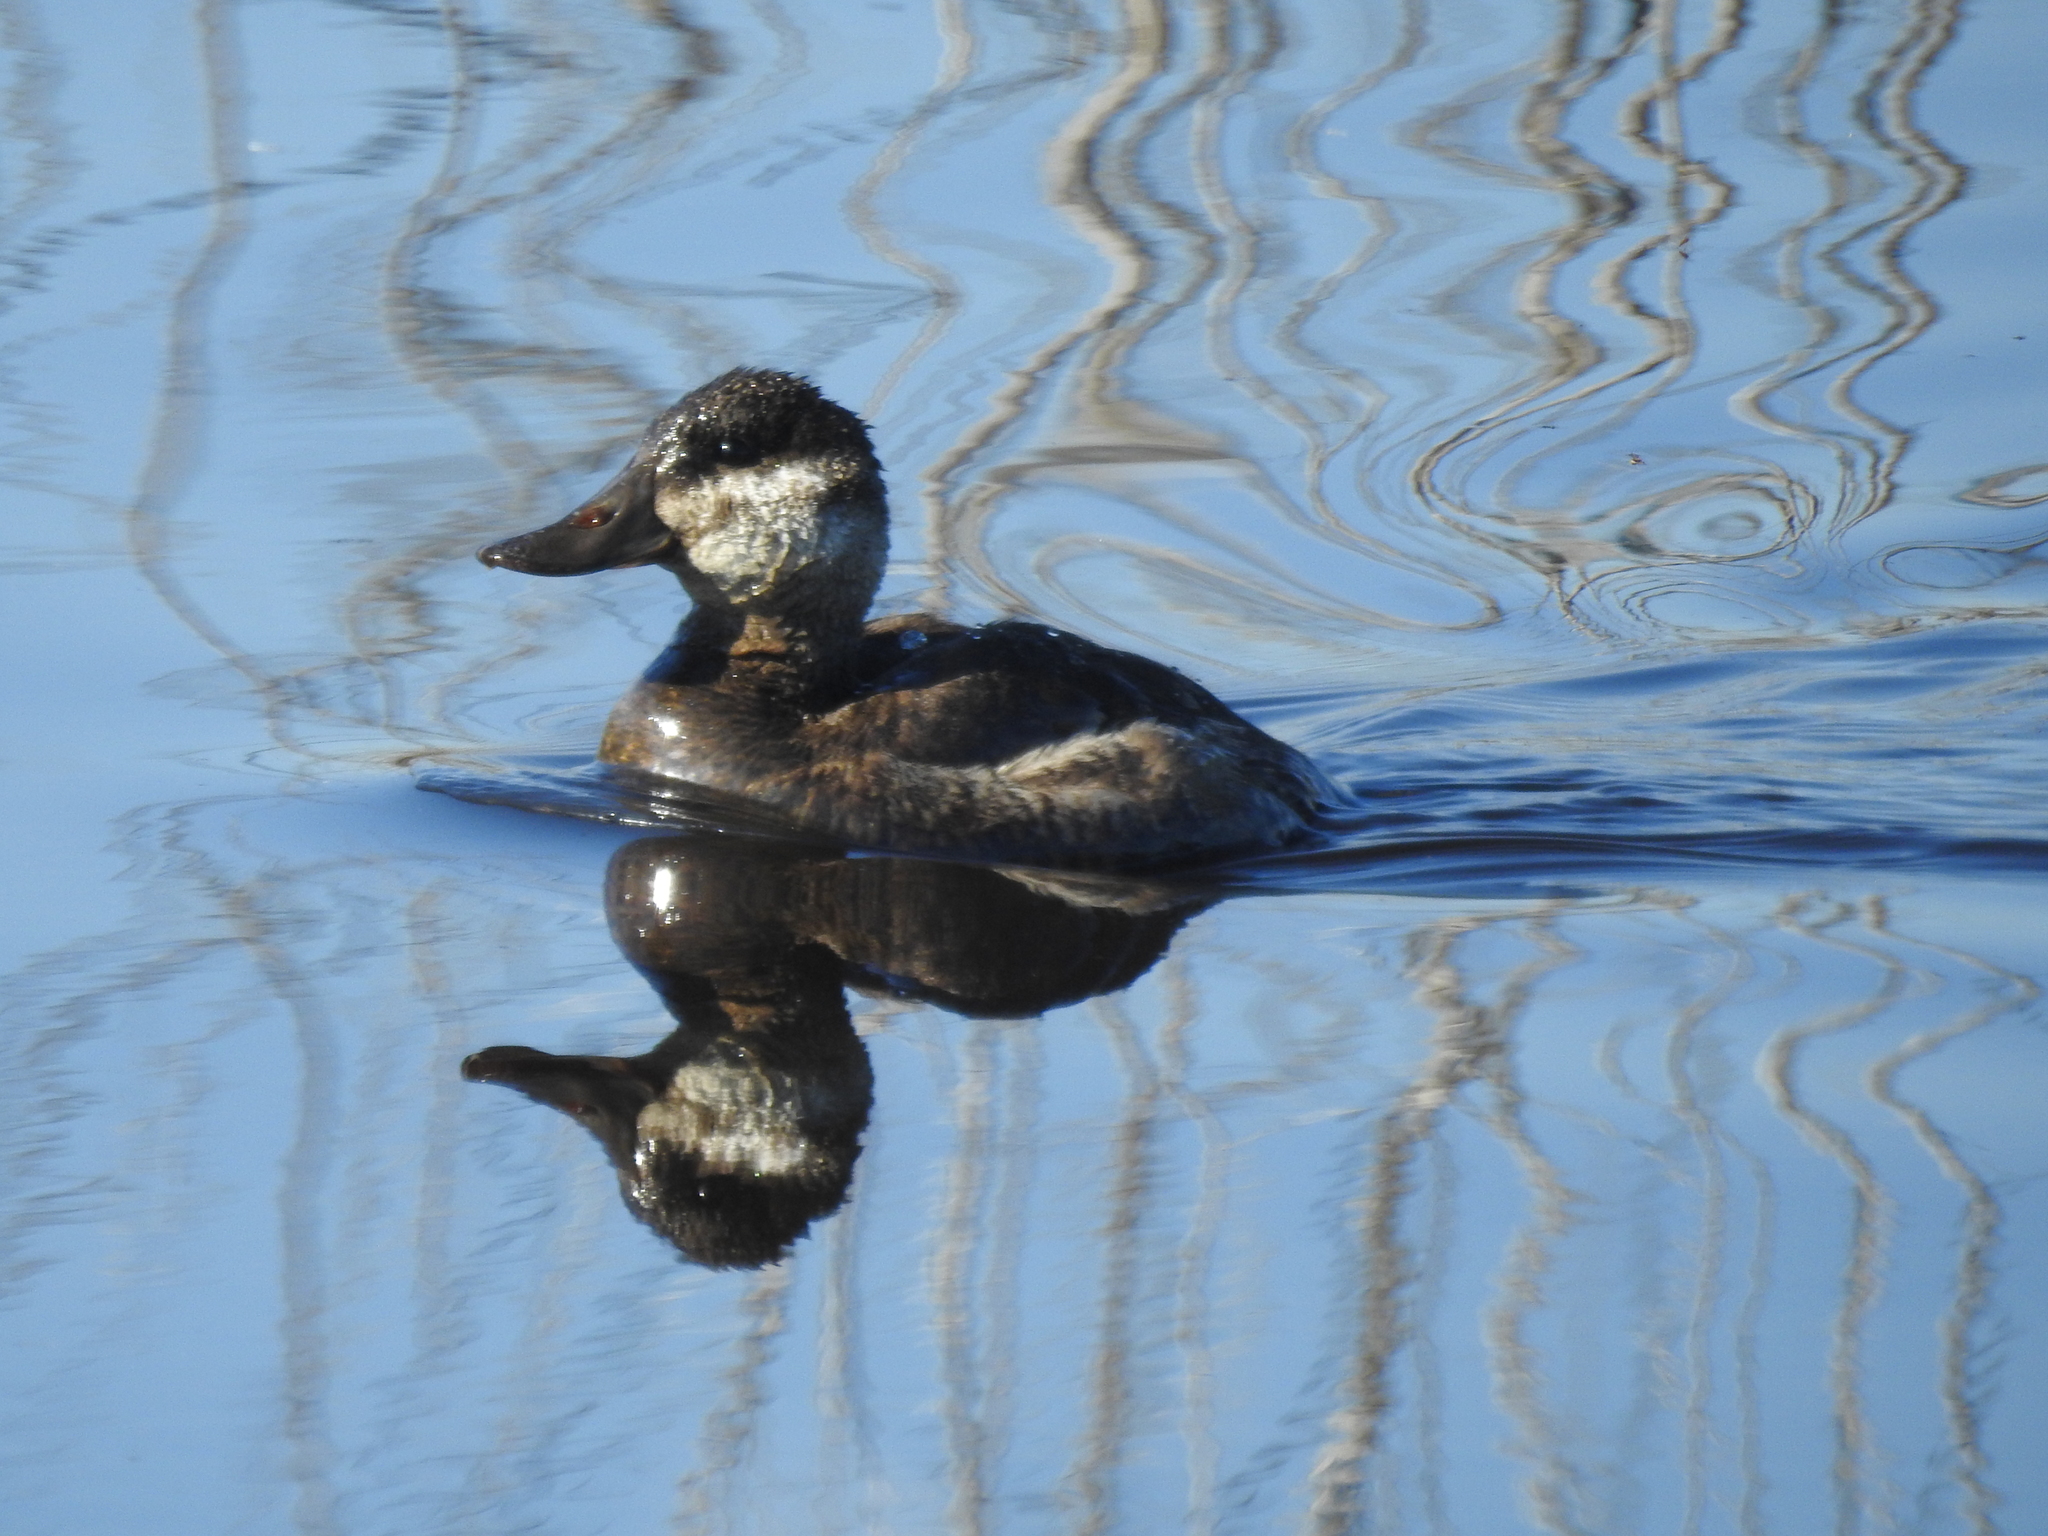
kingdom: Animalia
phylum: Chordata
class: Aves
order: Anseriformes
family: Anatidae
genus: Oxyura
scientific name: Oxyura jamaicensis
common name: Ruddy duck
